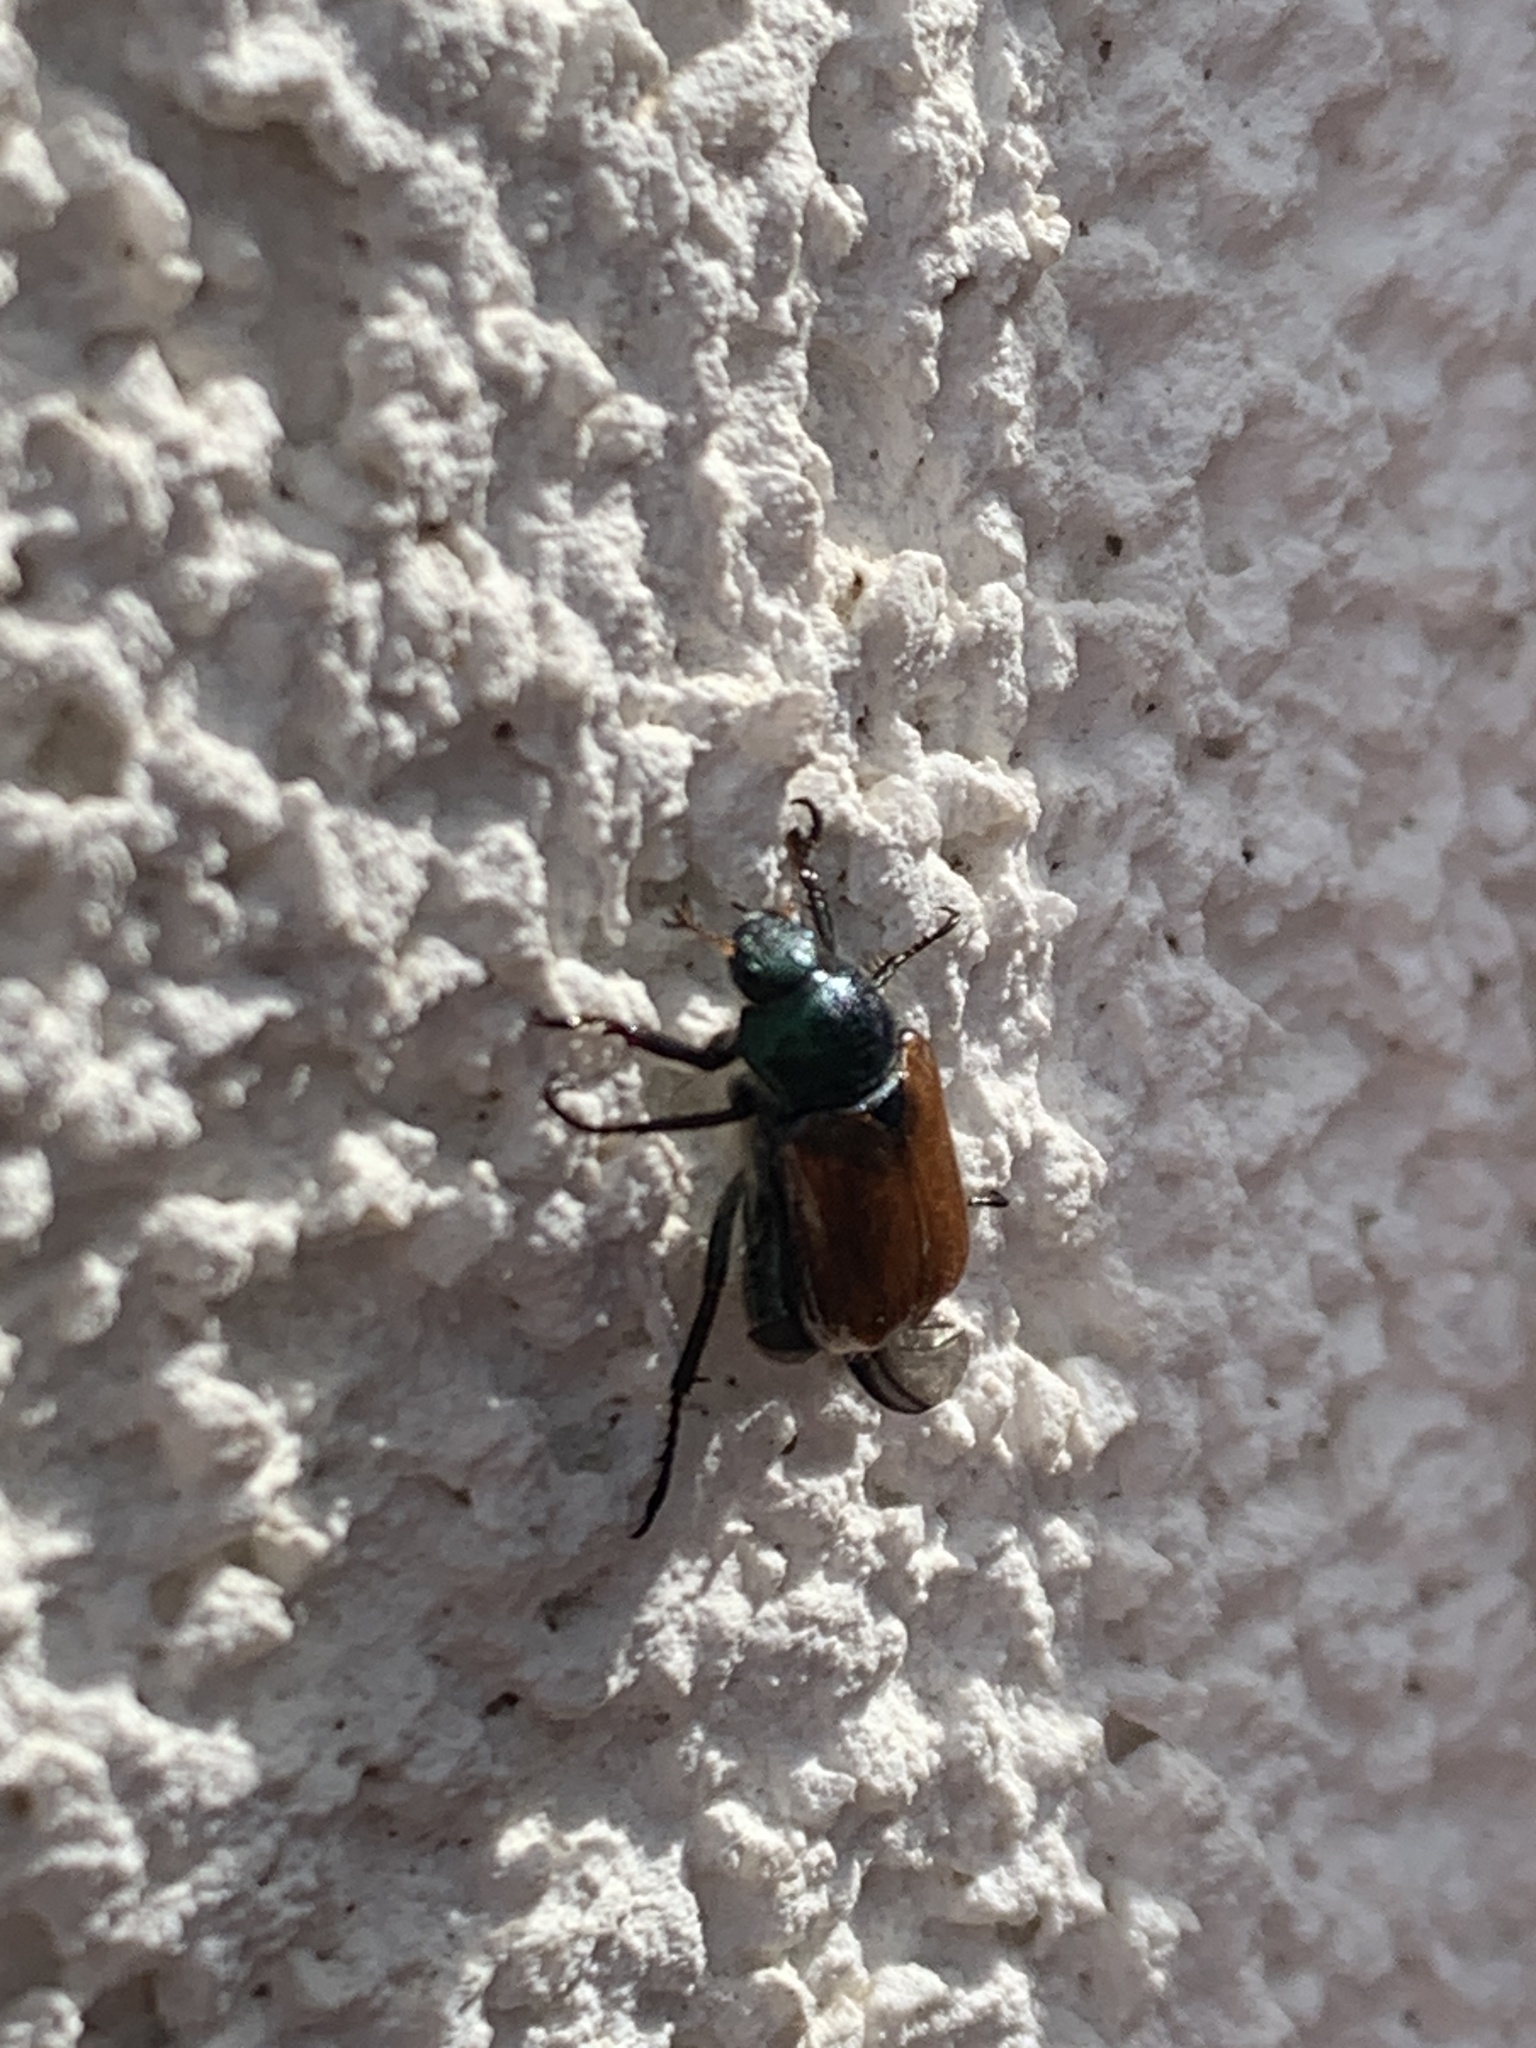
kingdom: Animalia
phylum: Arthropoda
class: Insecta
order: Coleoptera
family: Scarabaeidae
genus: Phyllopertha
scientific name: Phyllopertha horticola
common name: Garden chafer
